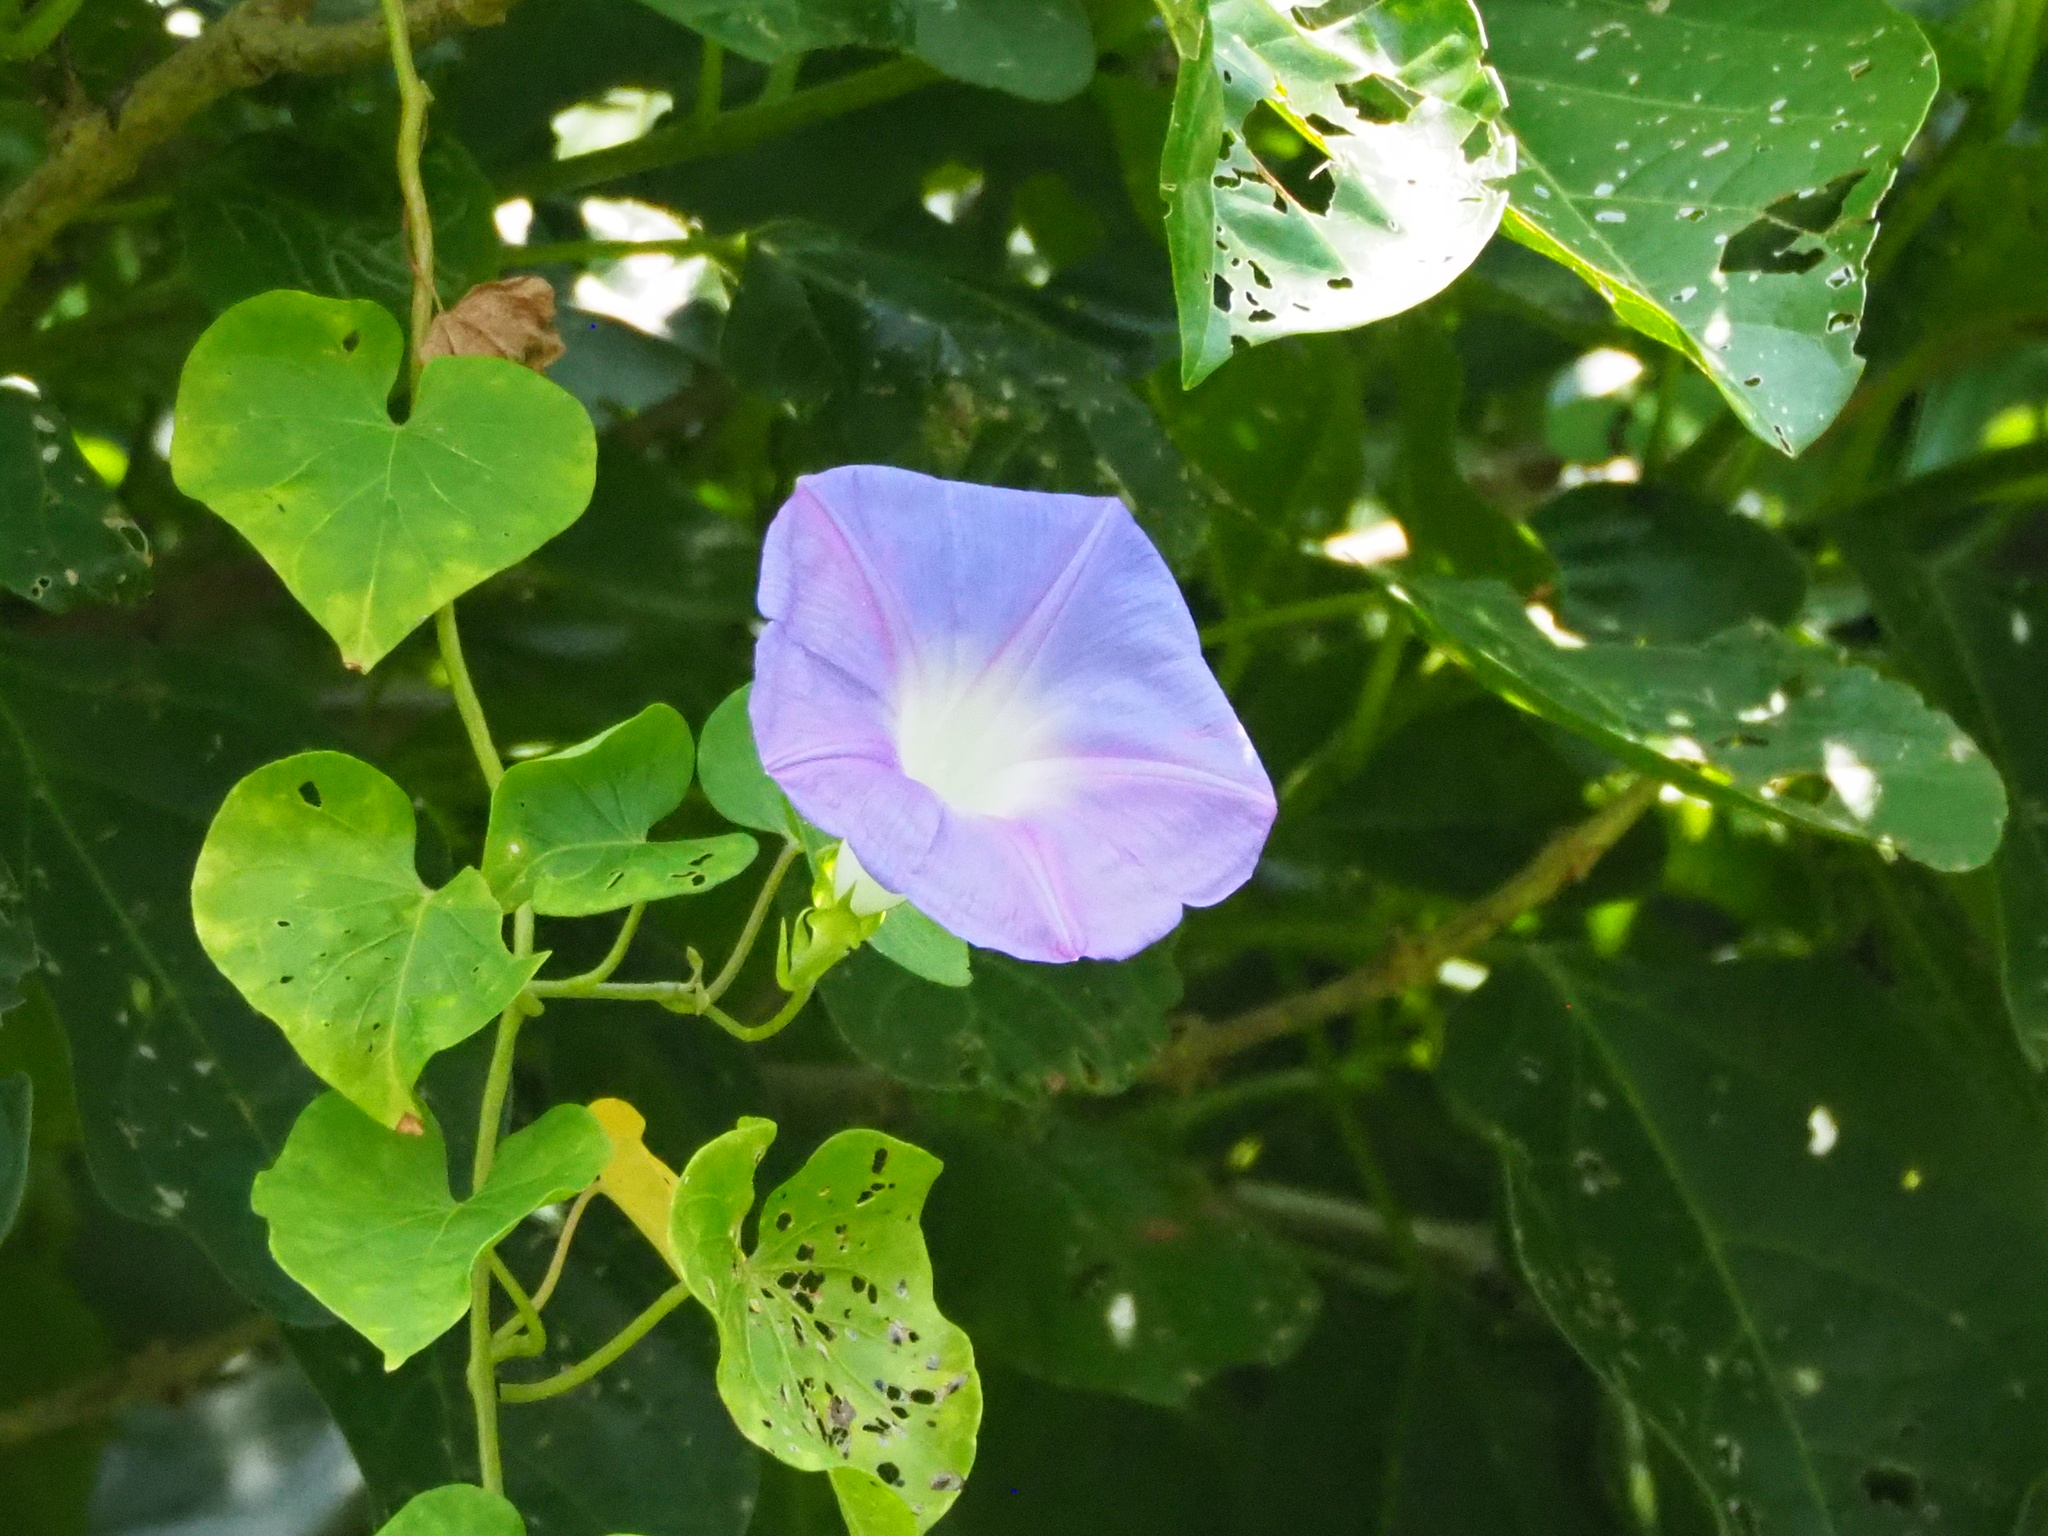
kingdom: Plantae
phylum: Tracheophyta
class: Magnoliopsida
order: Solanales
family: Convolvulaceae
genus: Ipomoea
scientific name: Ipomoea indica
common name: Blue dawnflower
